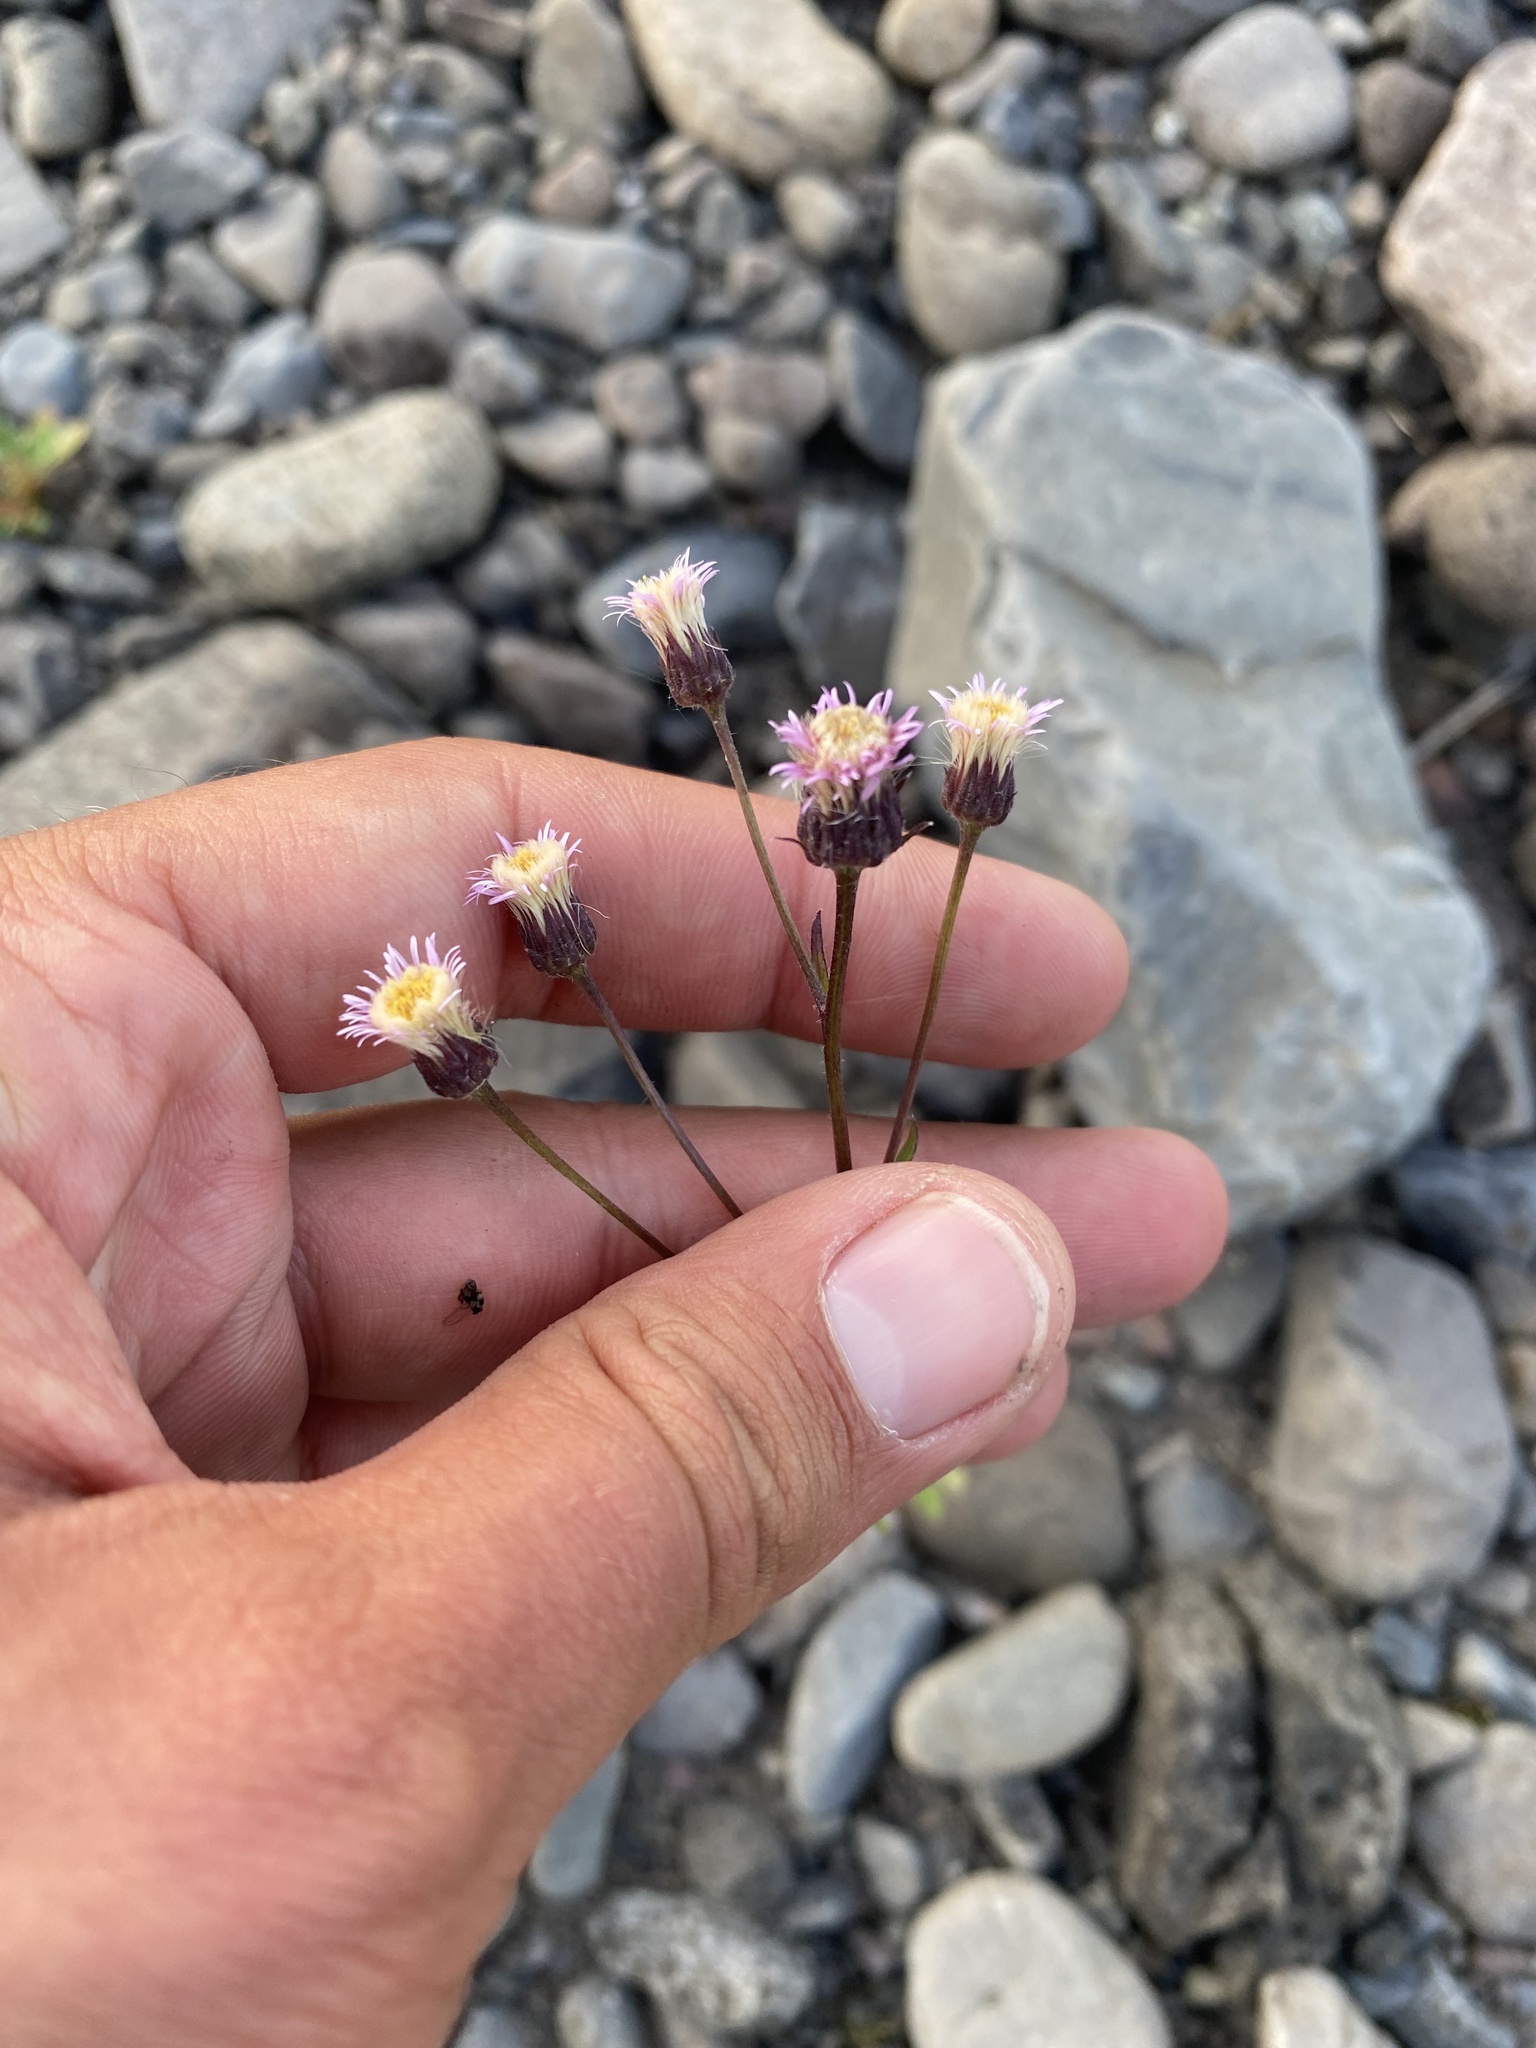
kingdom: Plantae
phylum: Tracheophyta
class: Magnoliopsida
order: Asterales
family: Asteraceae
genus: Erigeron
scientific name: Erigeron acris
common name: Blue fleabane
